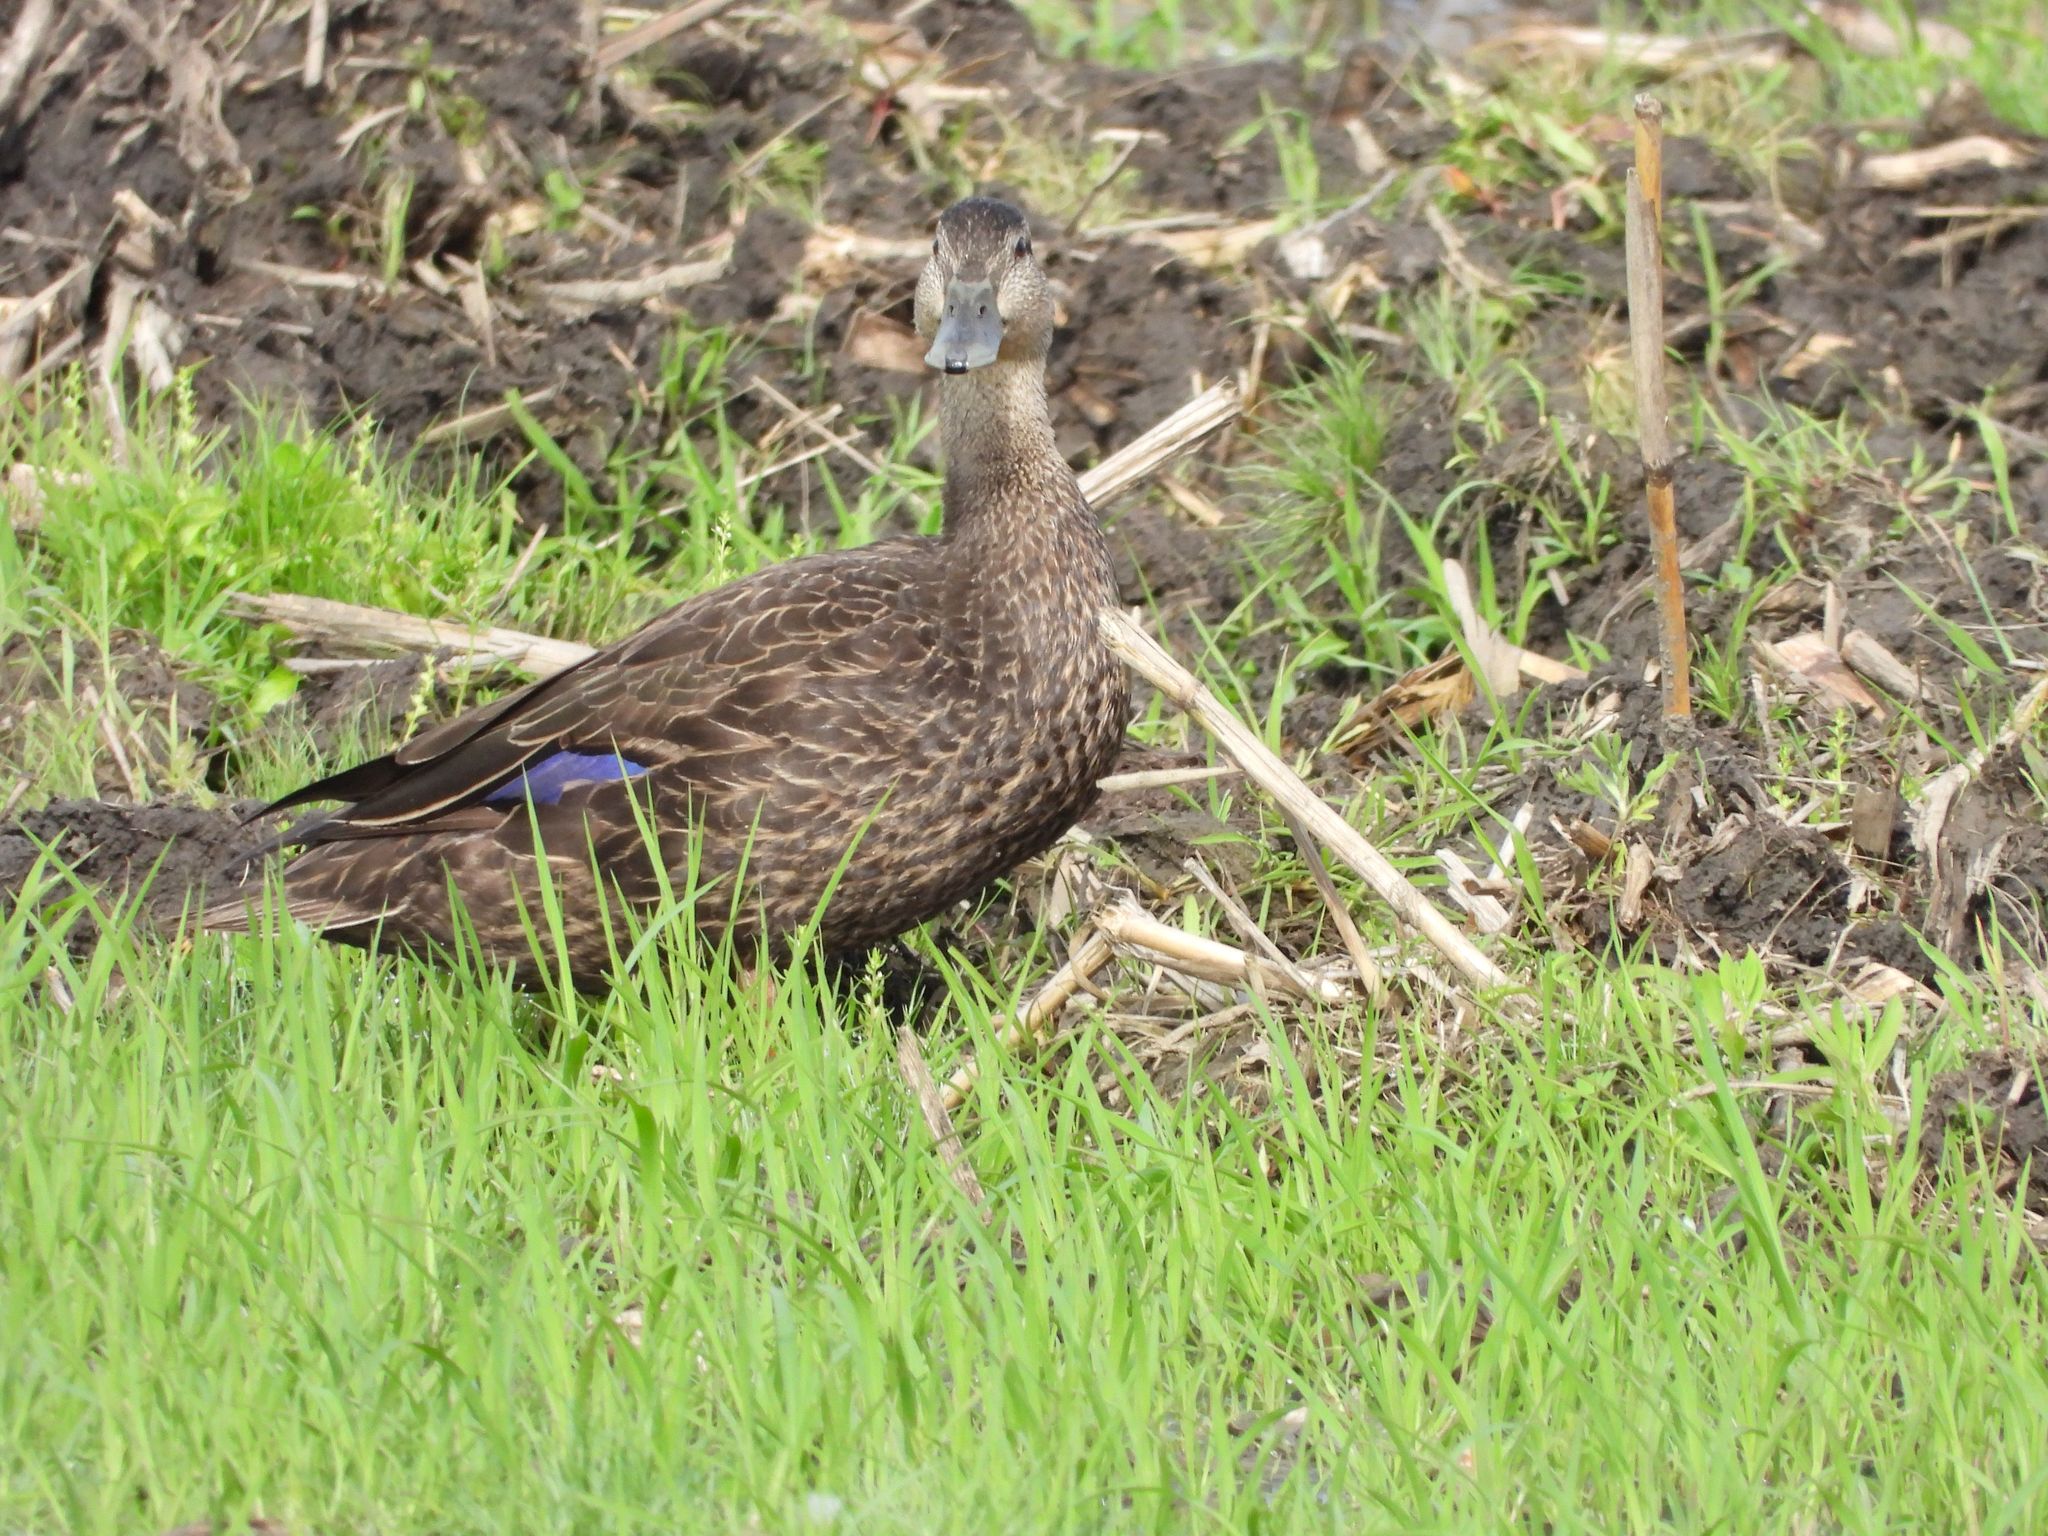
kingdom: Animalia
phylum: Chordata
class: Aves
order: Anseriformes
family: Anatidae
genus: Anas
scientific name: Anas rubripes
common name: American black duck
